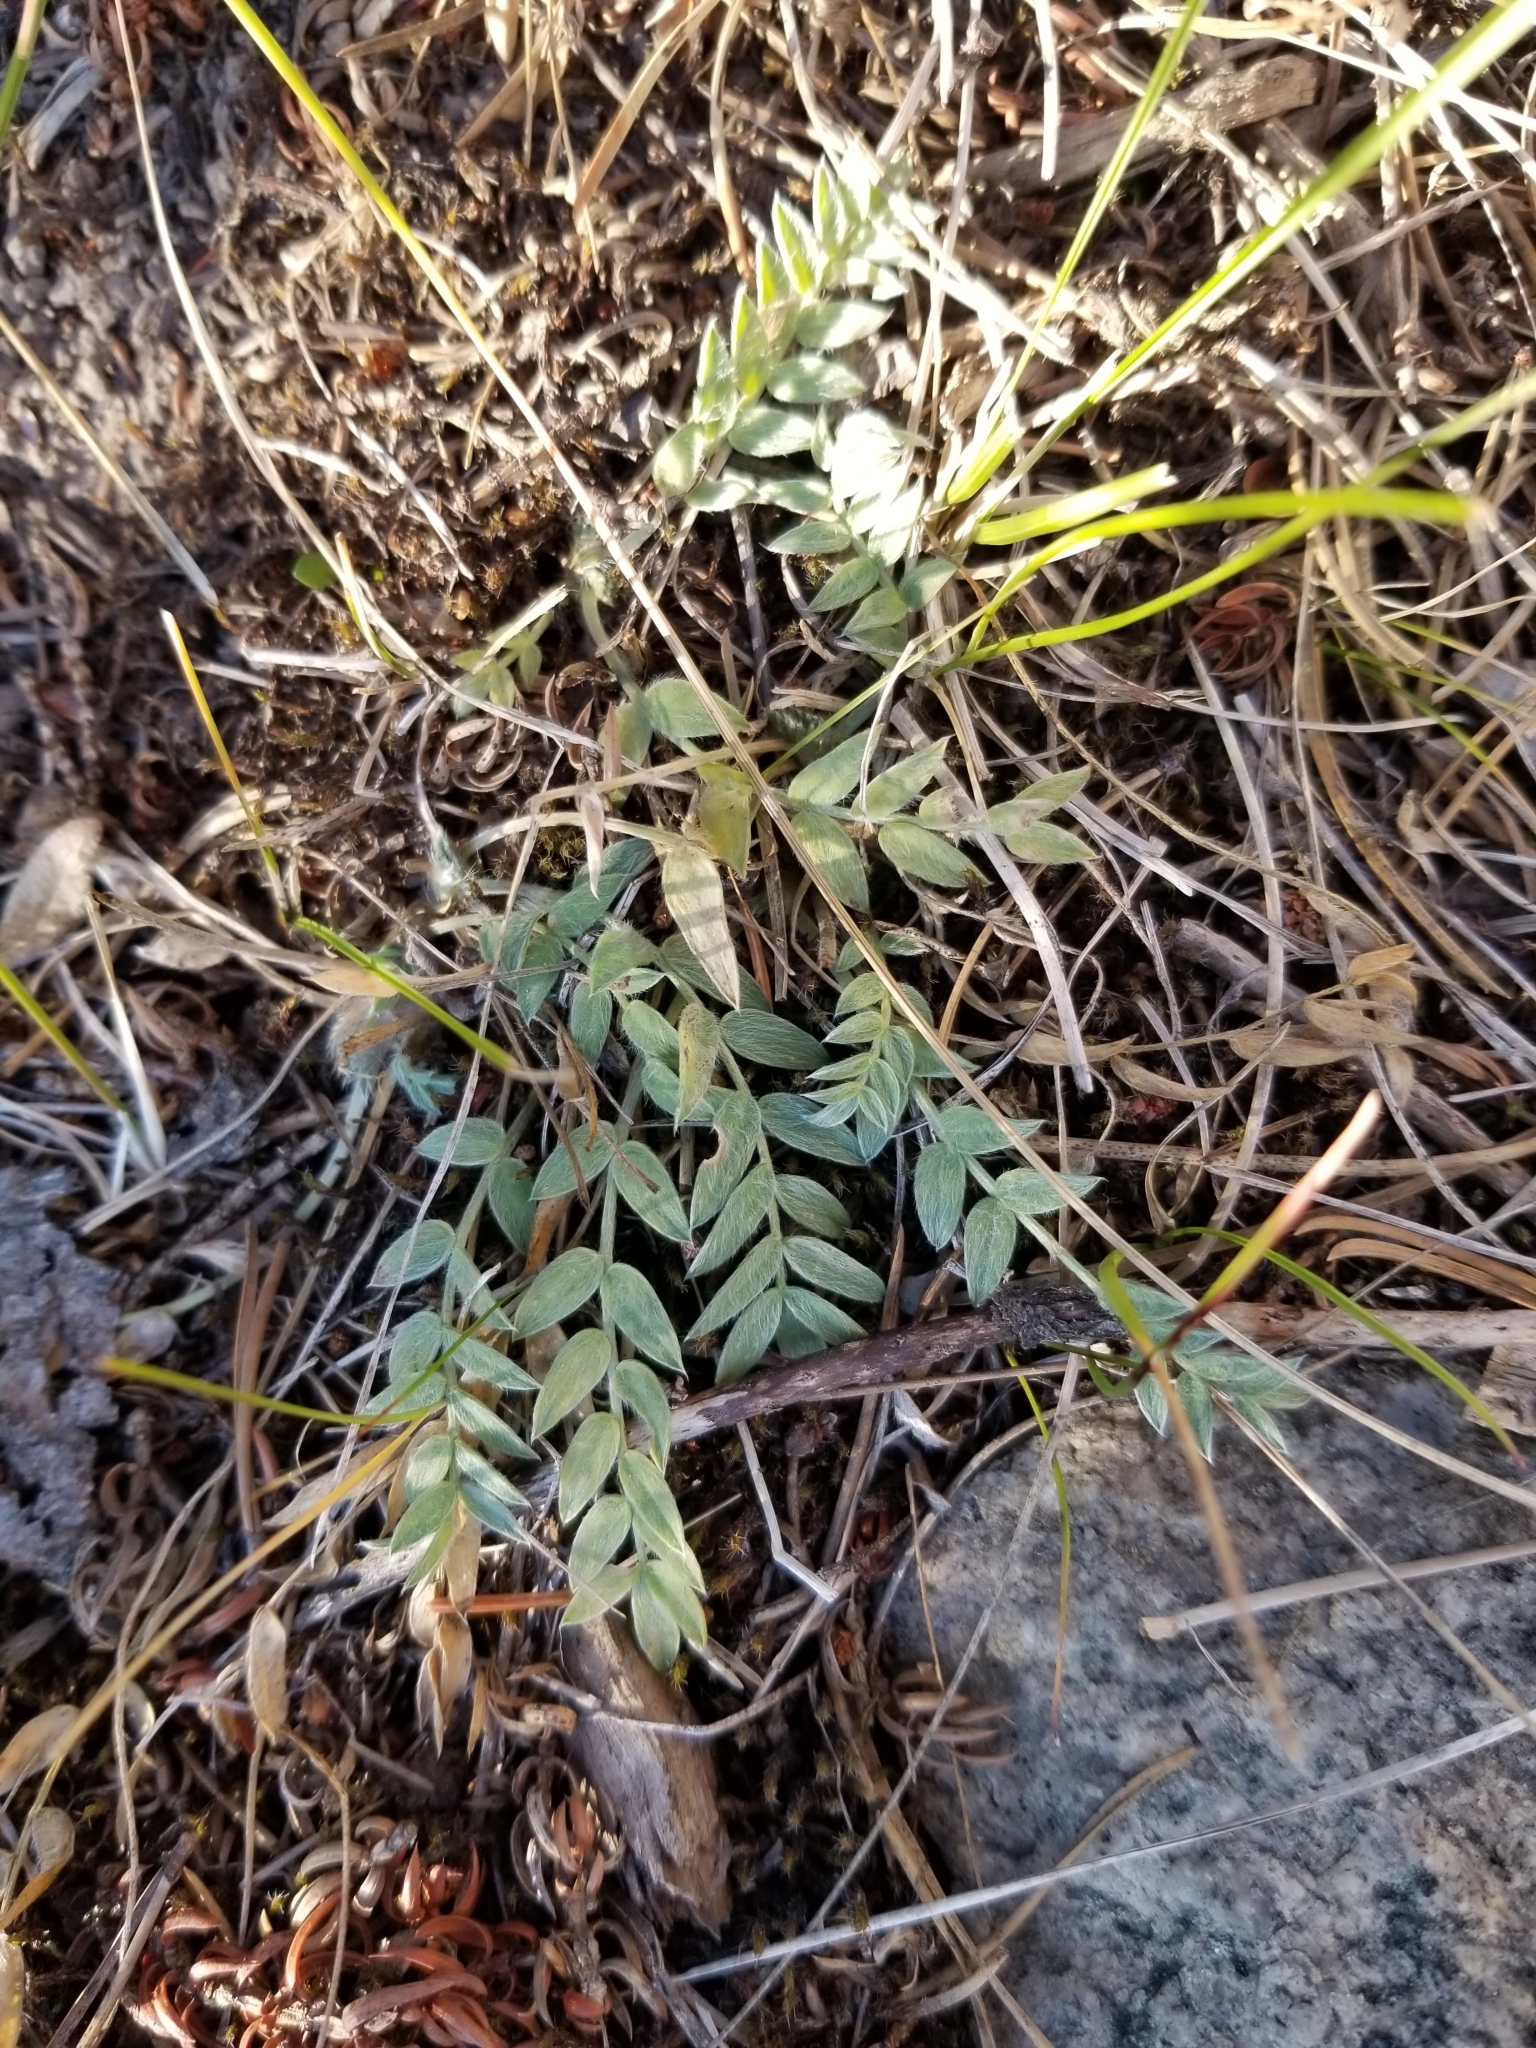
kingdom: Plantae
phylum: Tracheophyta
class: Magnoliopsida
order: Fabales
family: Fabaceae
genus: Oxytropis
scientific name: Oxytropis sericea
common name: Silky locoweed
